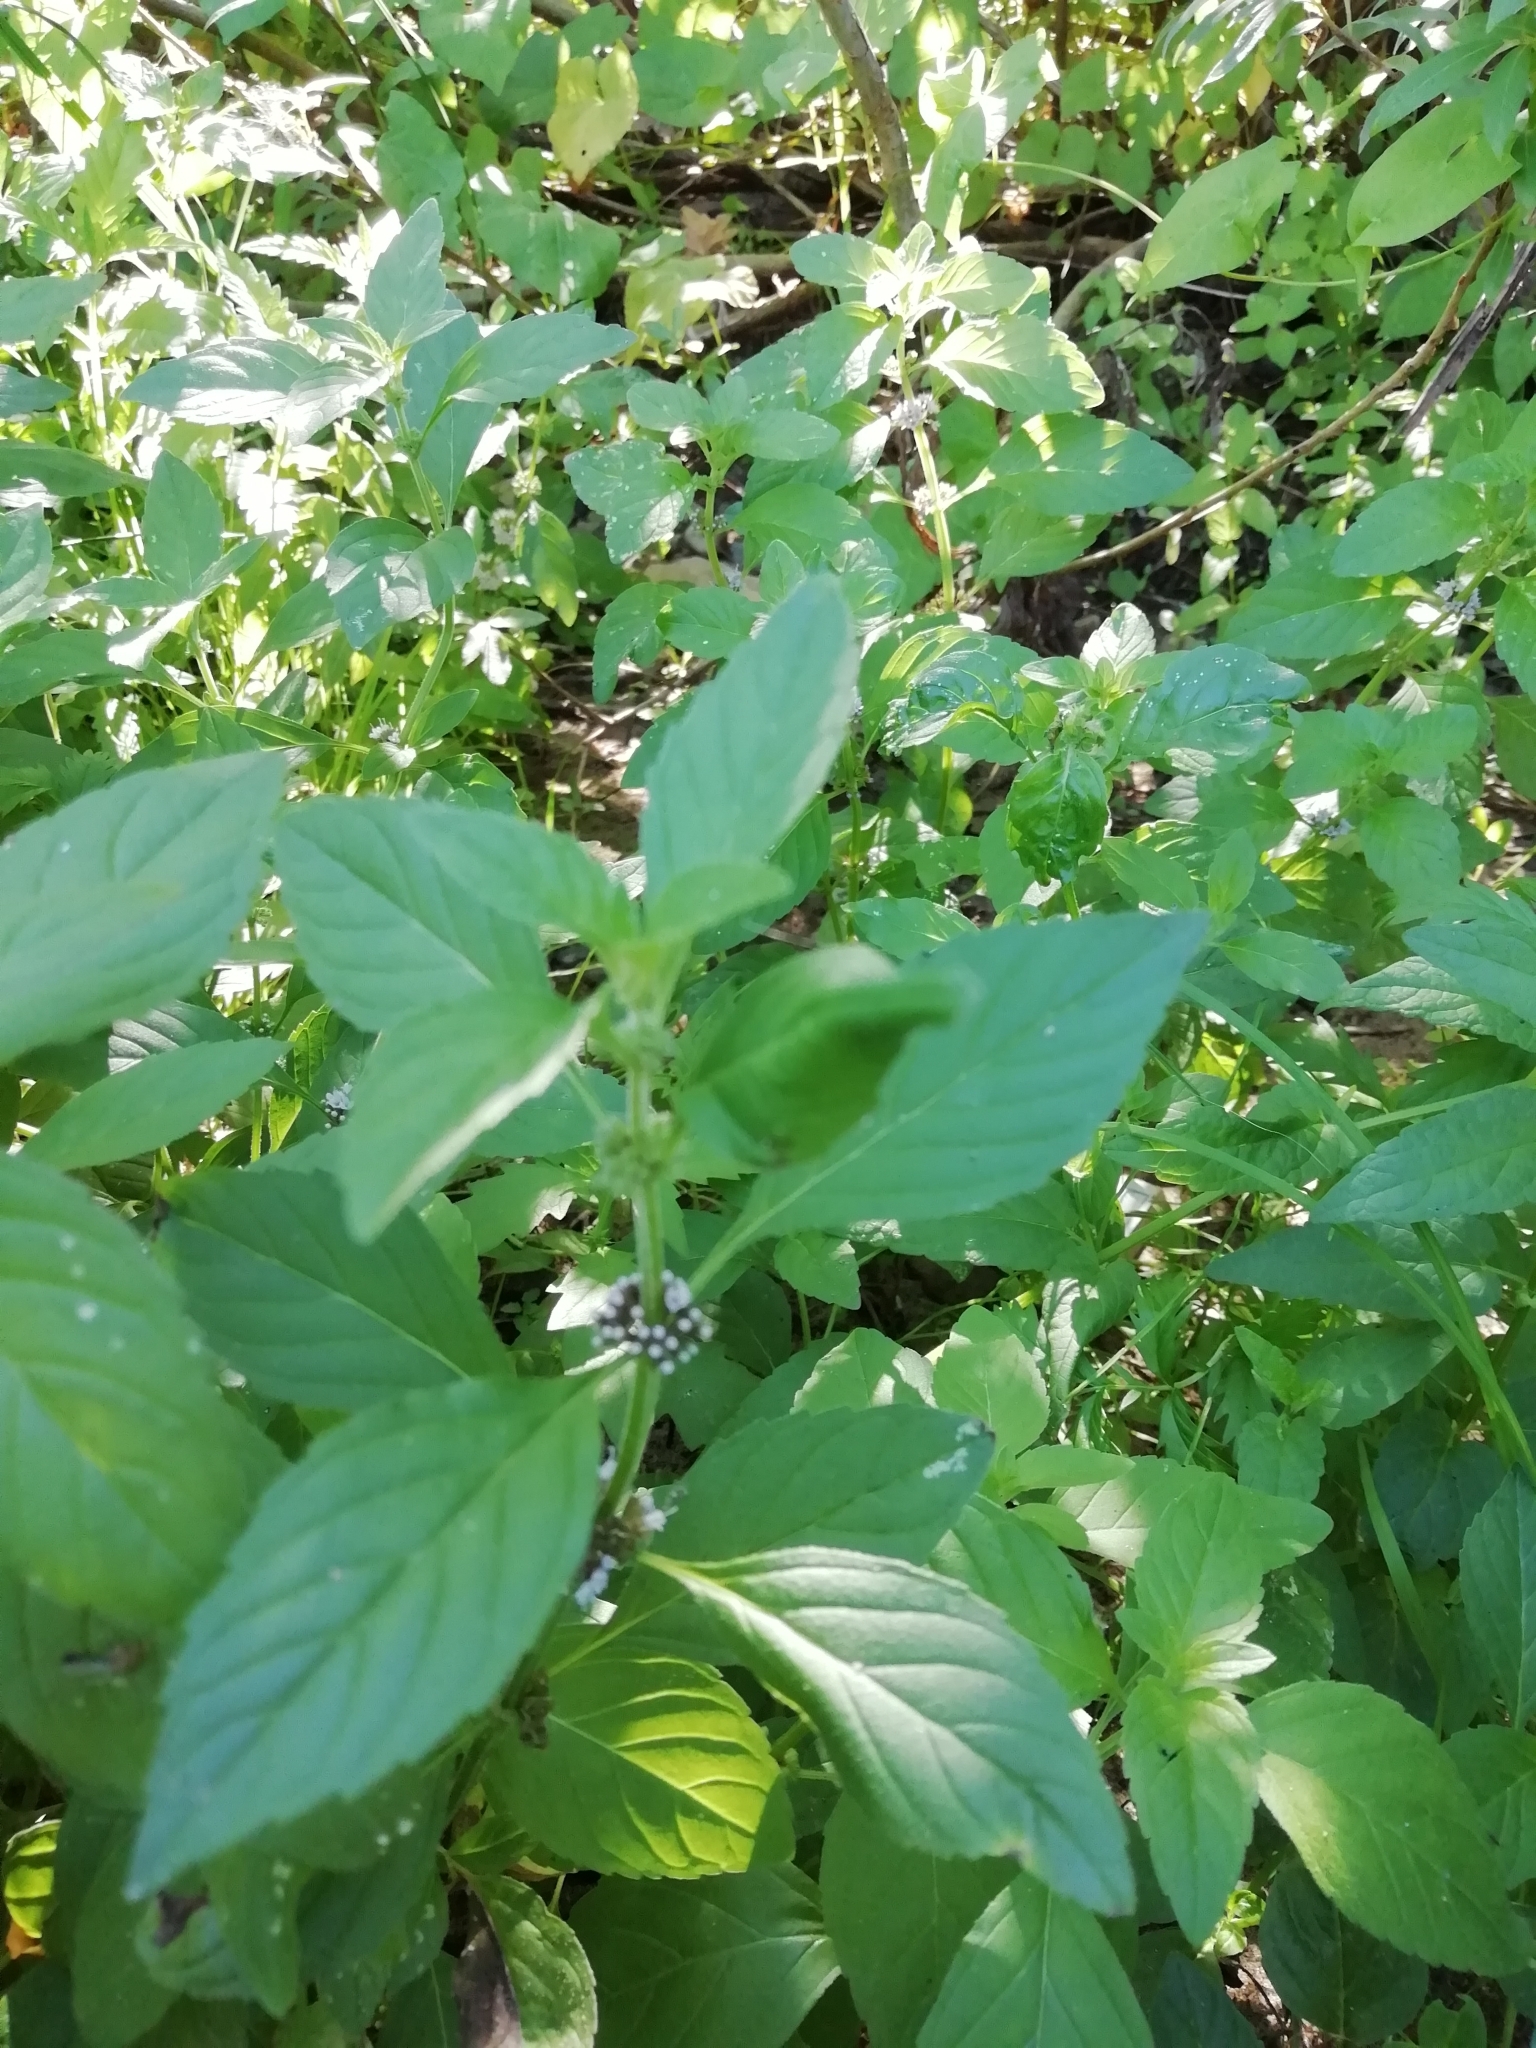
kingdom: Plantae
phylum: Tracheophyta
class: Magnoliopsida
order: Lamiales
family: Lamiaceae
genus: Mentha
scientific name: Mentha arvensis
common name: Corn mint
